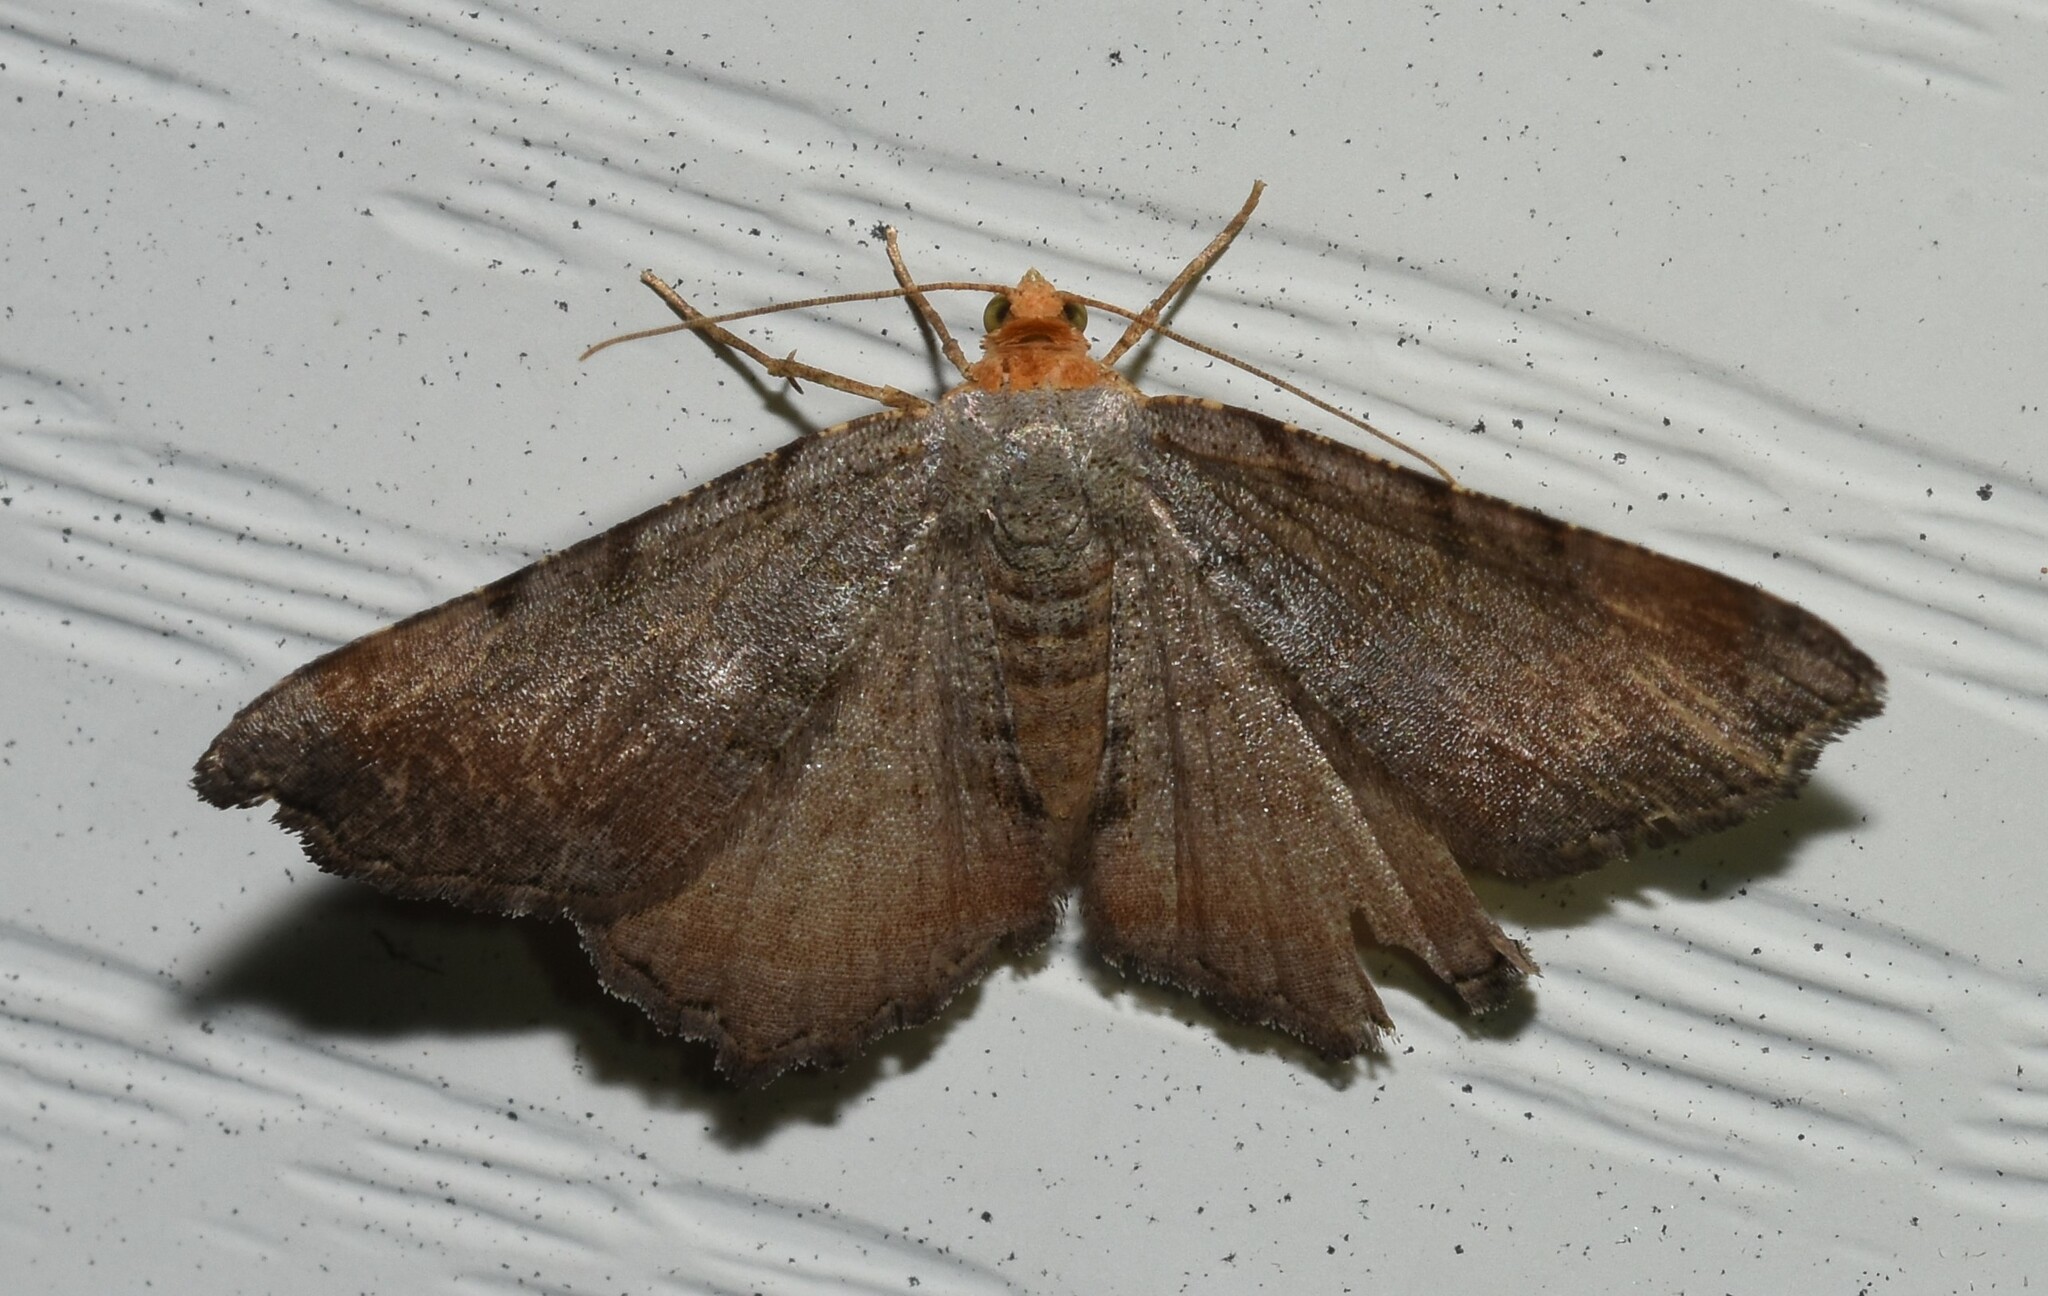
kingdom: Animalia
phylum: Arthropoda
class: Insecta
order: Lepidoptera
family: Geometridae
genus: Macaria
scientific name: Macaria transitaria
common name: Blurry chocolate angle
